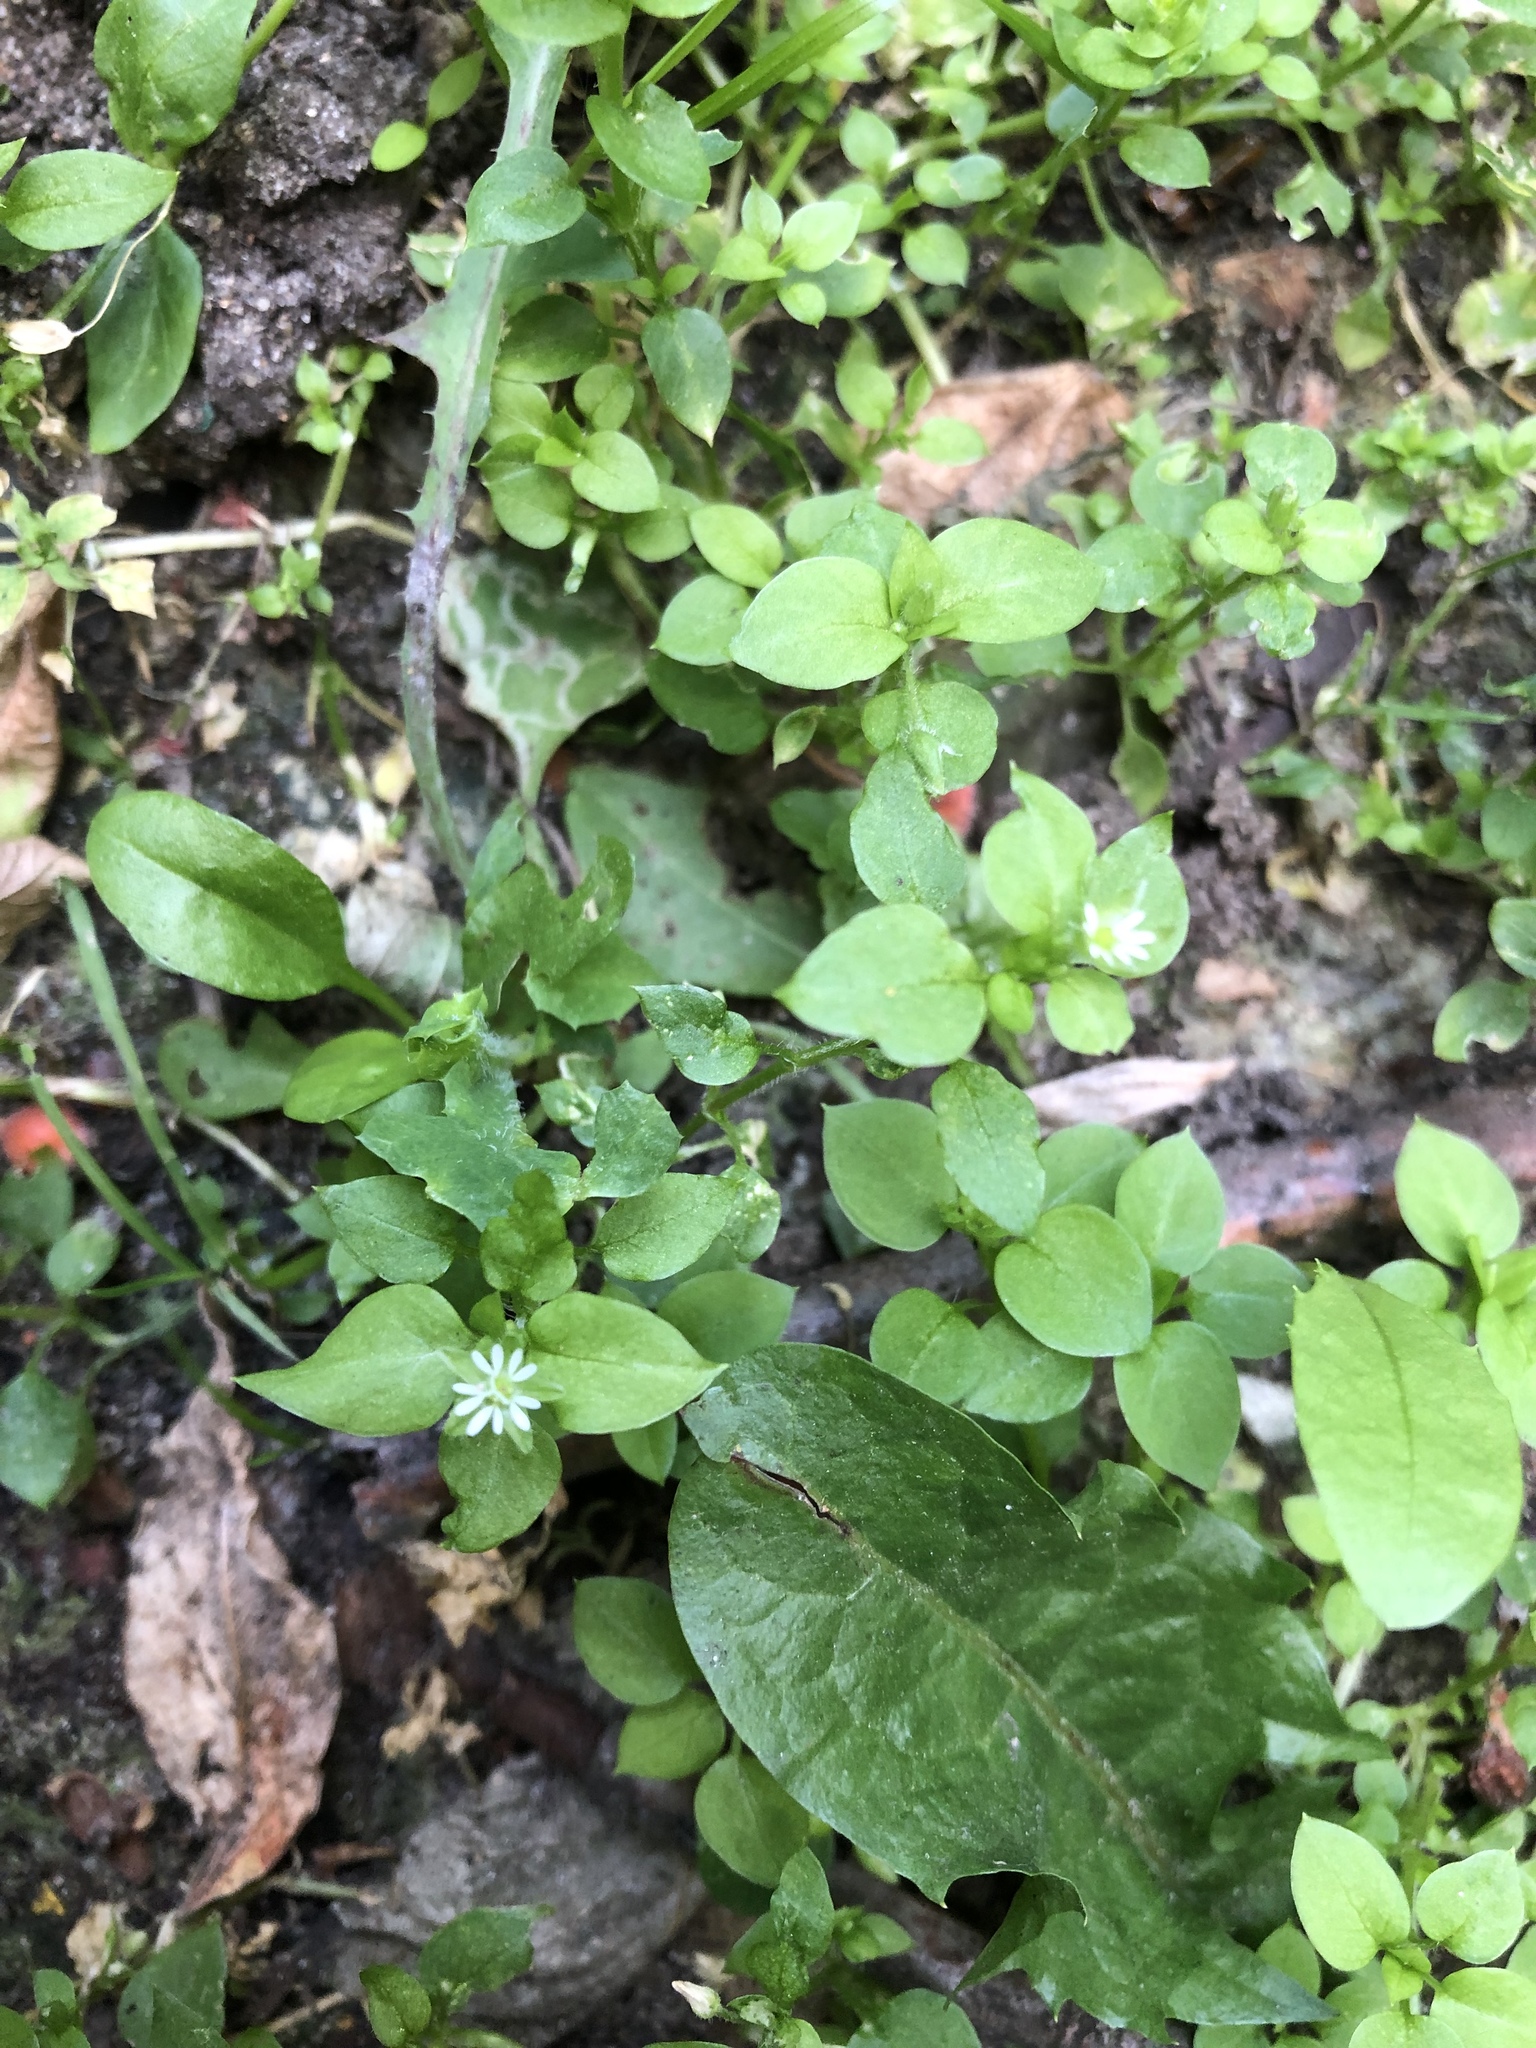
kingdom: Plantae
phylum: Tracheophyta
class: Magnoliopsida
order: Caryophyllales
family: Caryophyllaceae
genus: Stellaria
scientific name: Stellaria media
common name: Common chickweed
